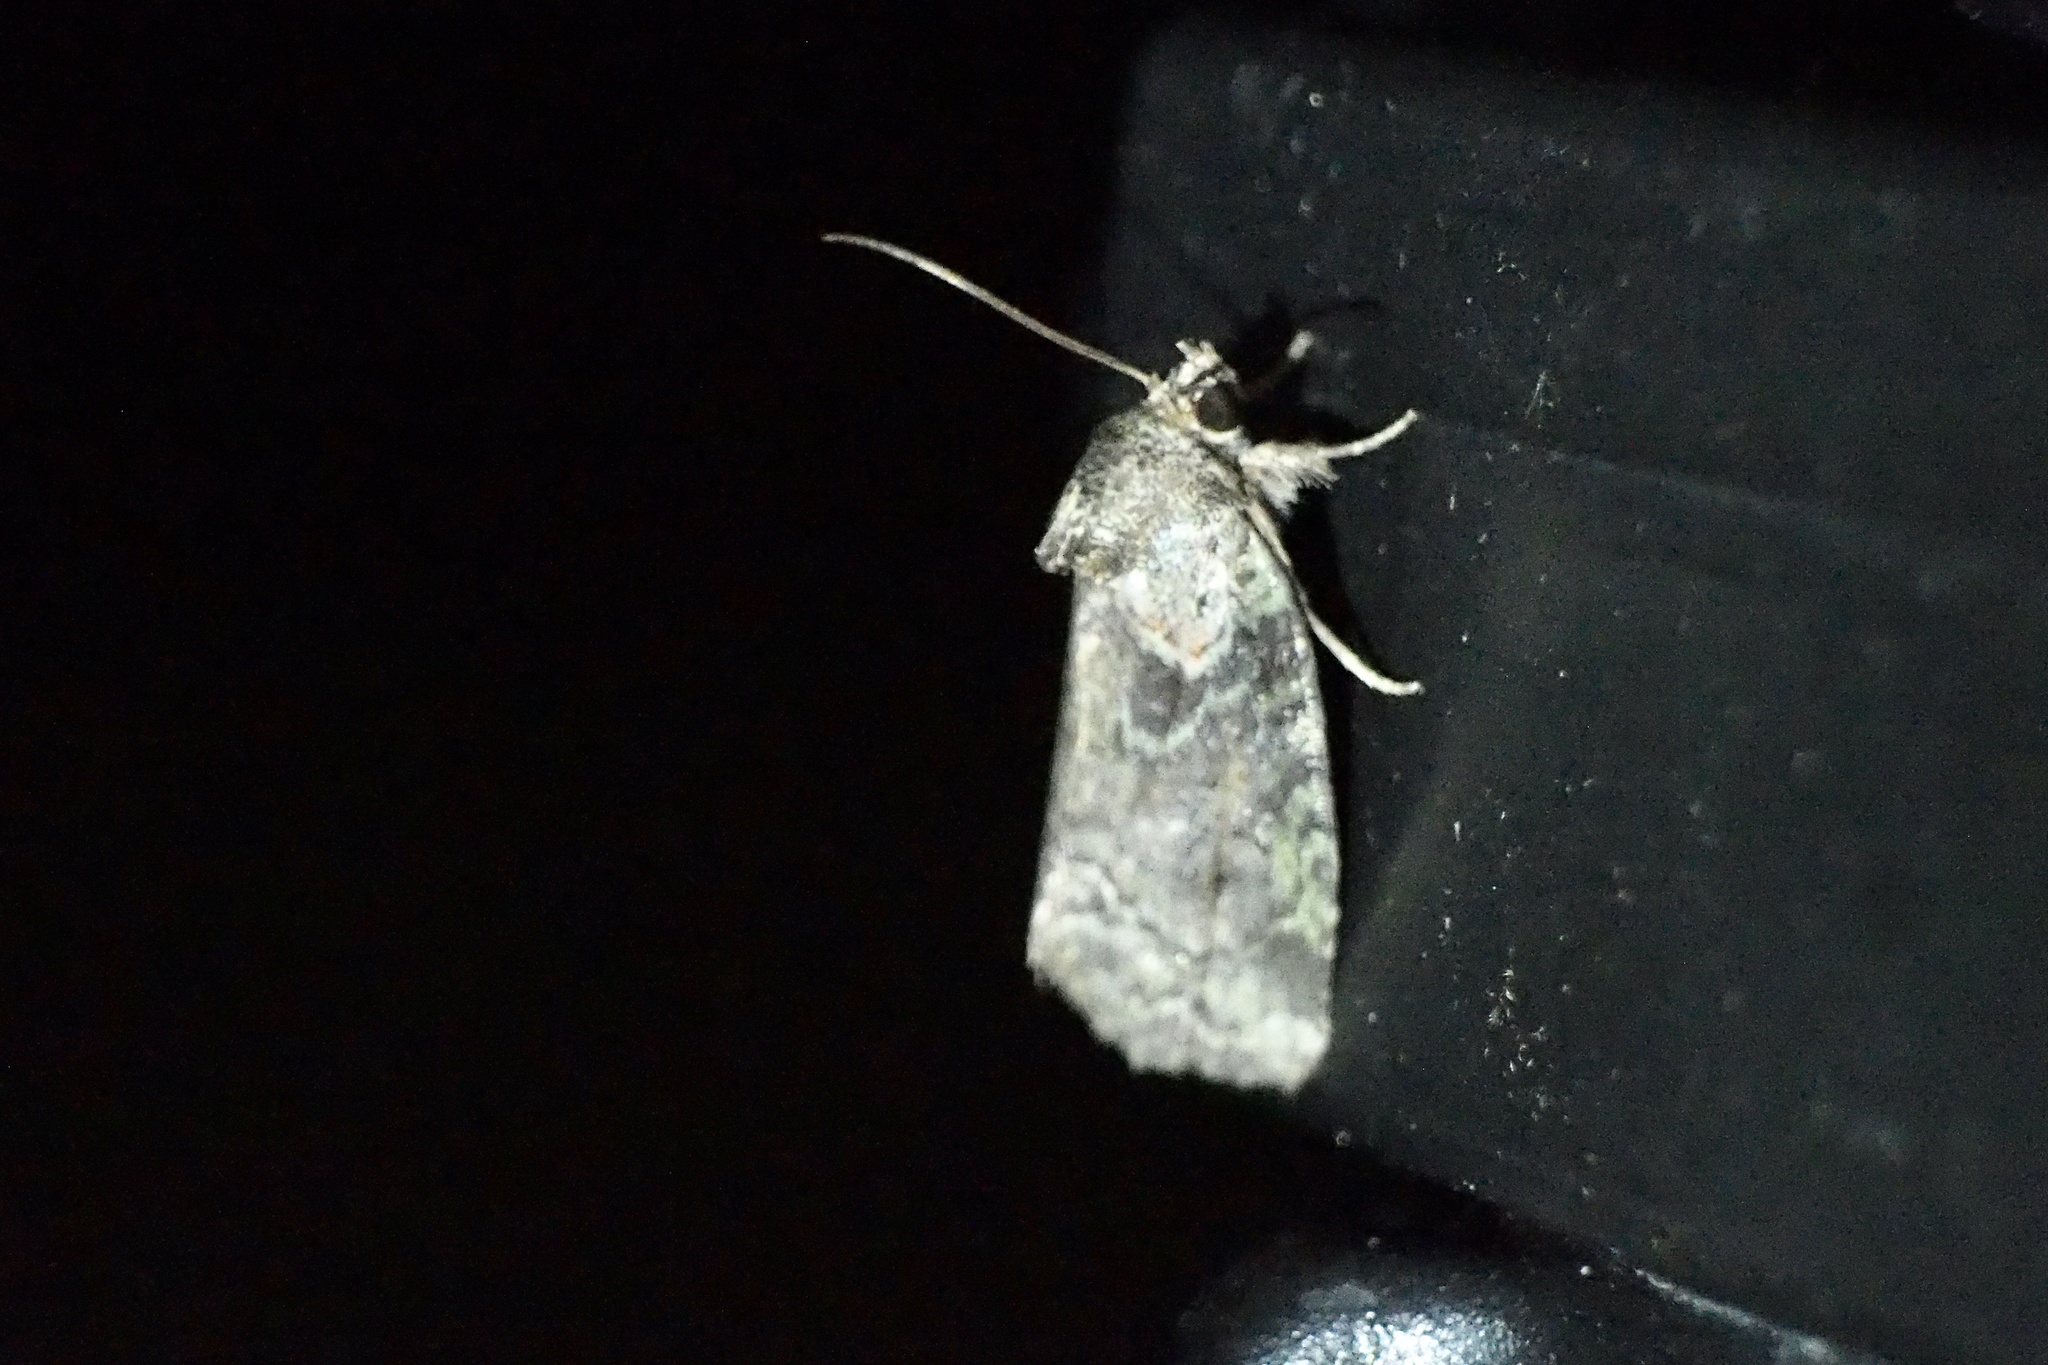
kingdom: Animalia
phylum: Arthropoda
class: Insecta
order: Lepidoptera
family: Noctuidae
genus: Stenoloba
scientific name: Stenoloba manleyi
